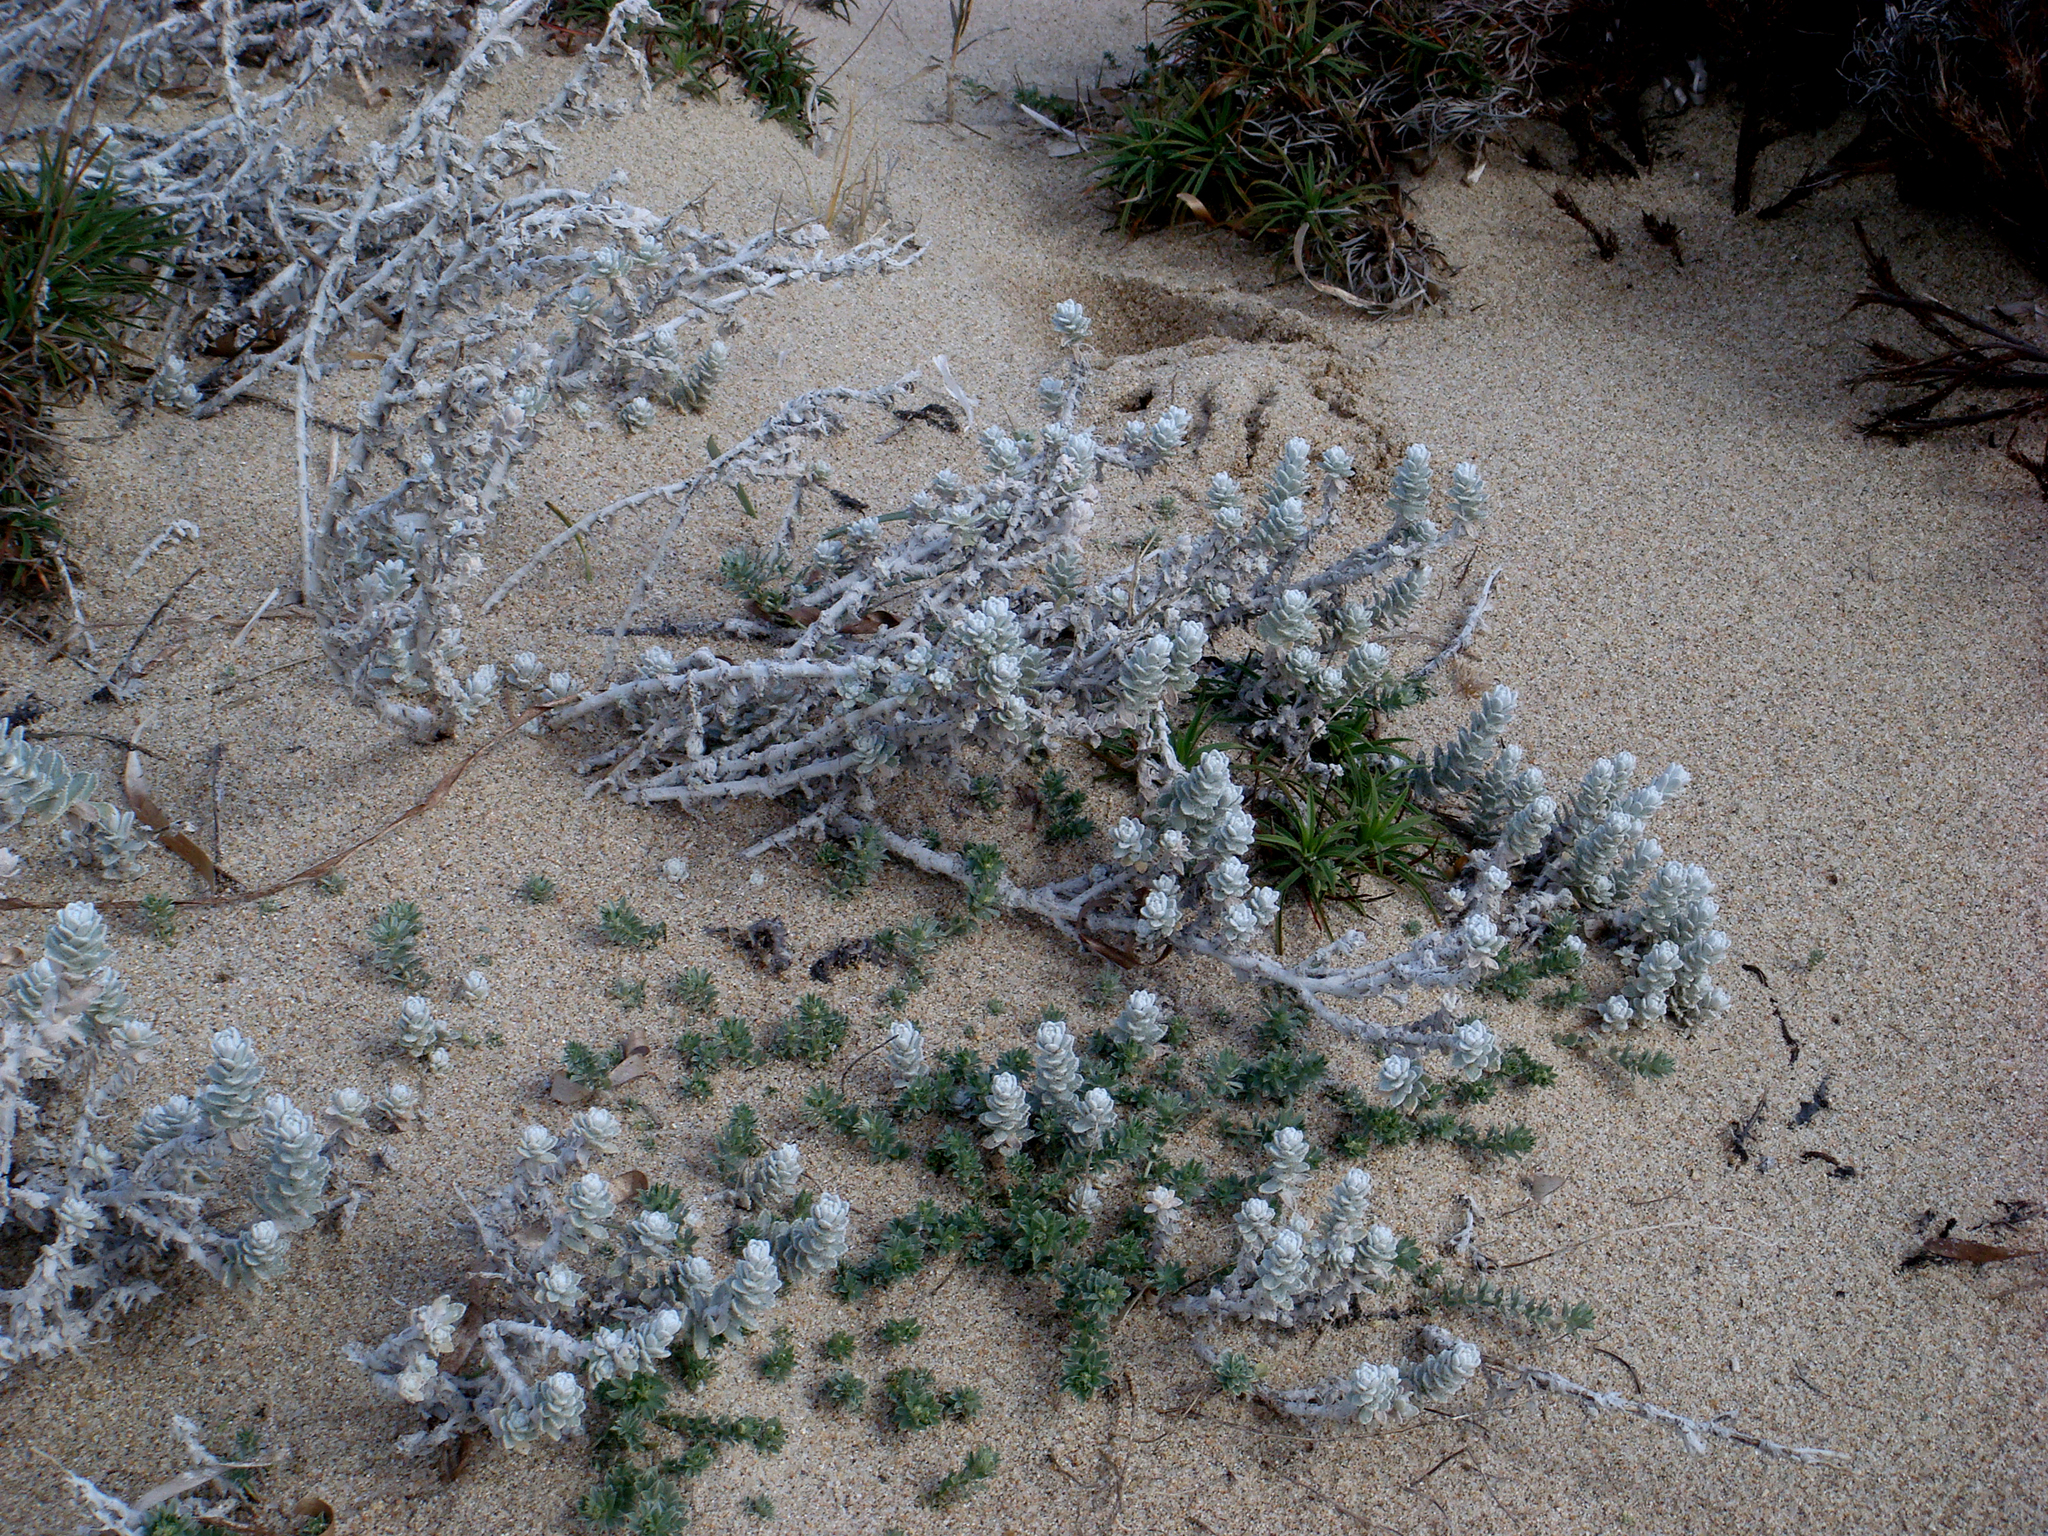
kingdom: Plantae
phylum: Tracheophyta
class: Magnoliopsida
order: Asterales
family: Asteraceae
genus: Achillea
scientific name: Achillea maritima
